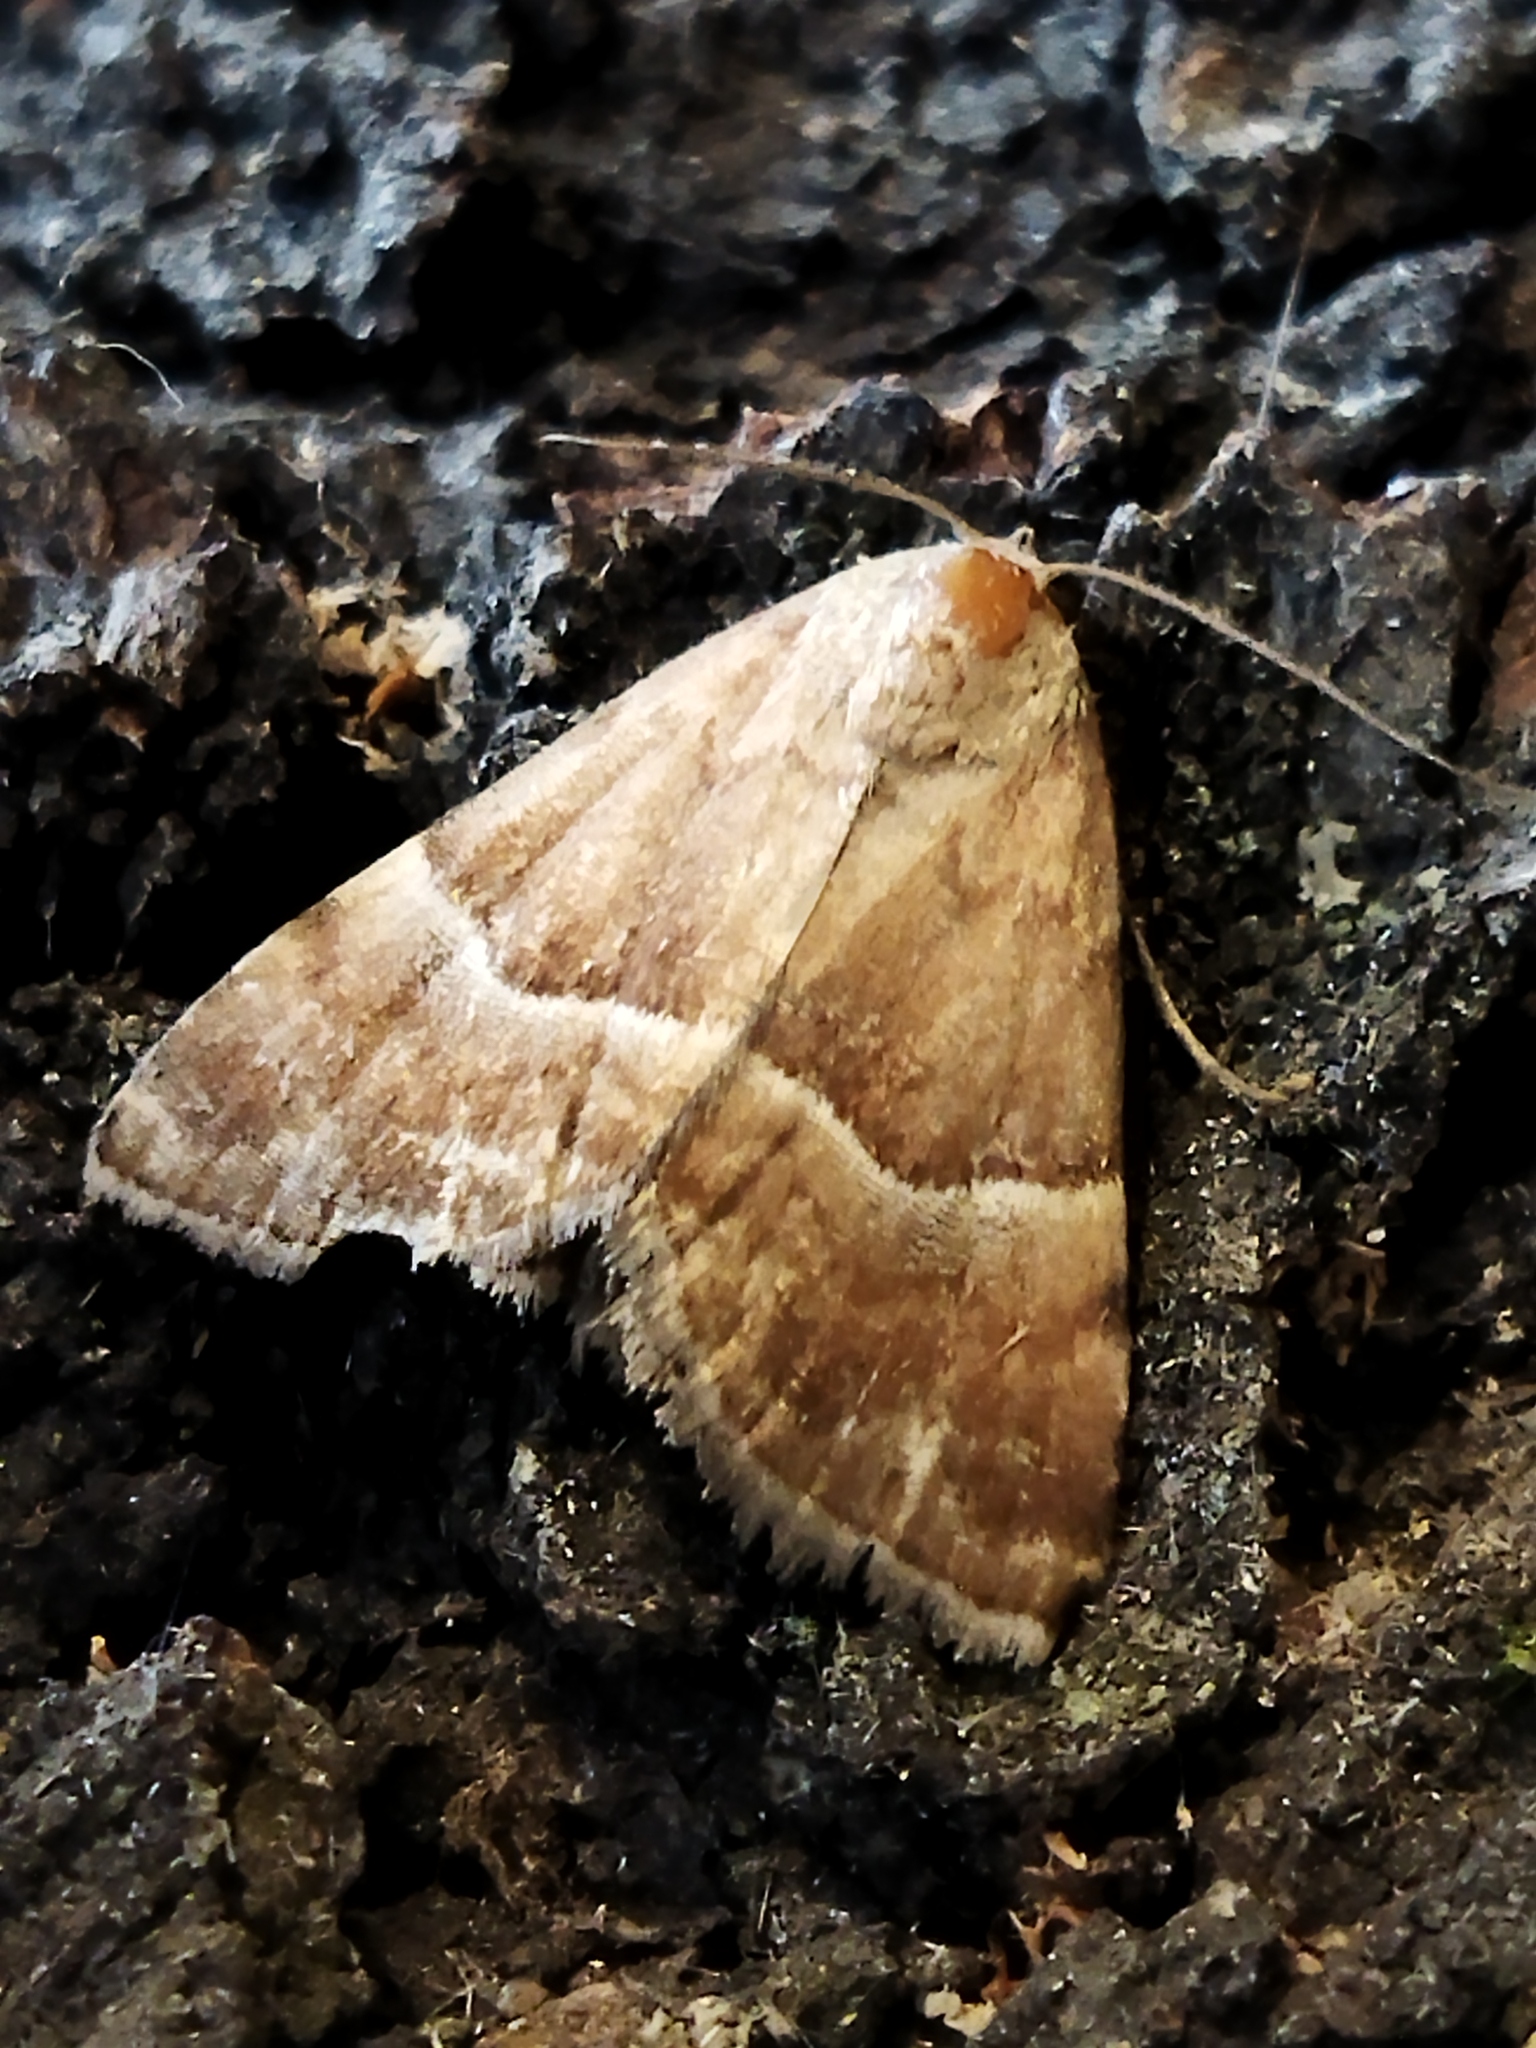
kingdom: Animalia
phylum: Arthropoda
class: Insecta
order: Lepidoptera
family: Noctuidae
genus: Odice
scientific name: Odice suava
